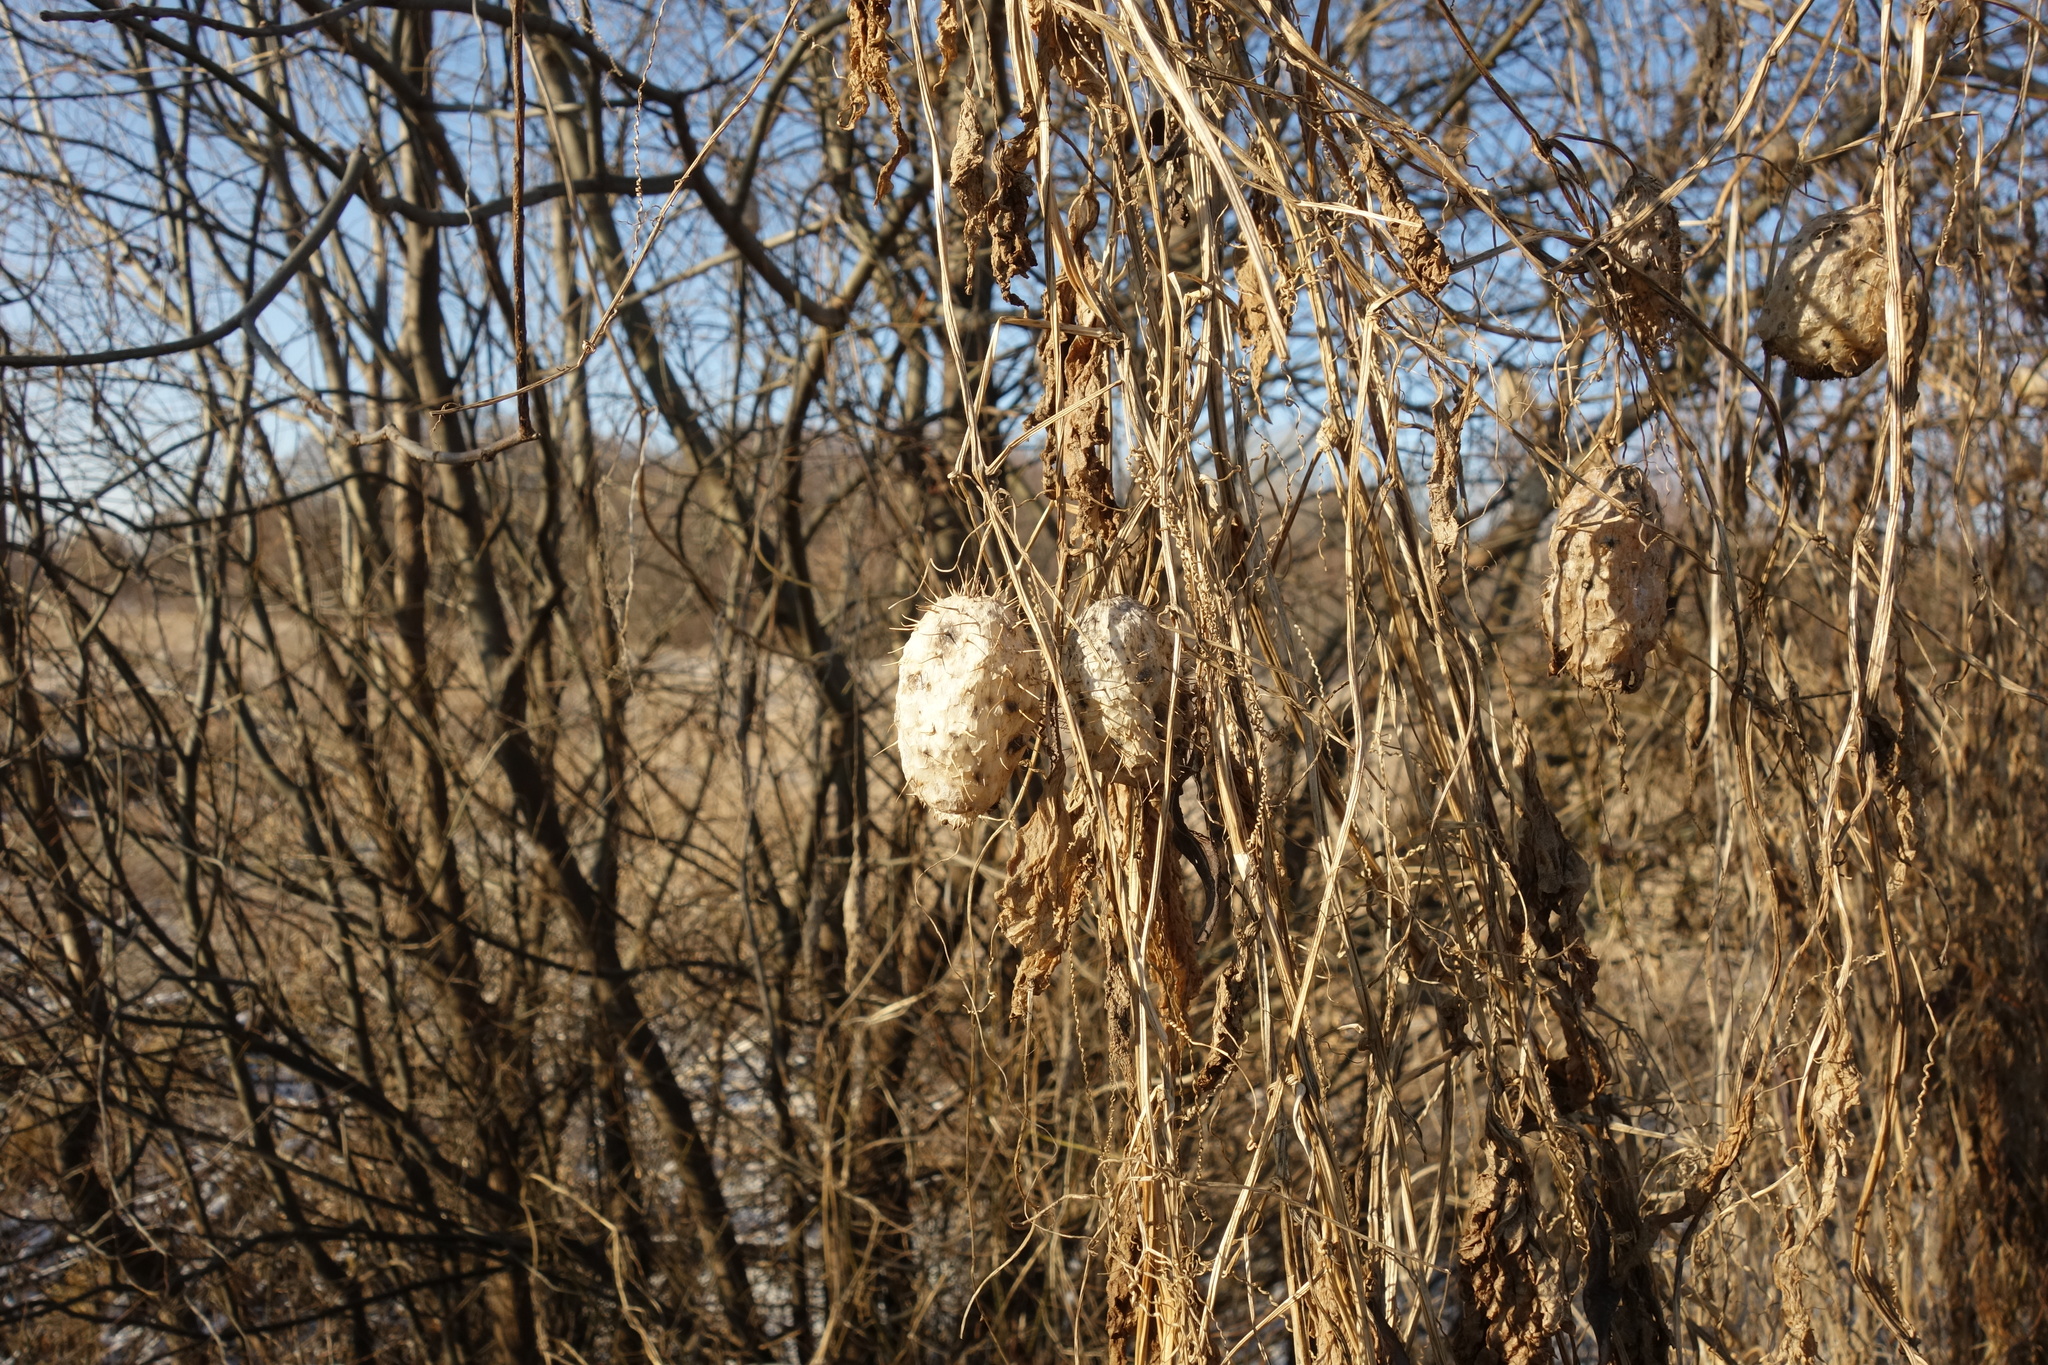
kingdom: Plantae
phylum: Tracheophyta
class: Magnoliopsida
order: Cucurbitales
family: Cucurbitaceae
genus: Echinocystis
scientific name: Echinocystis lobata
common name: Wild cucumber
